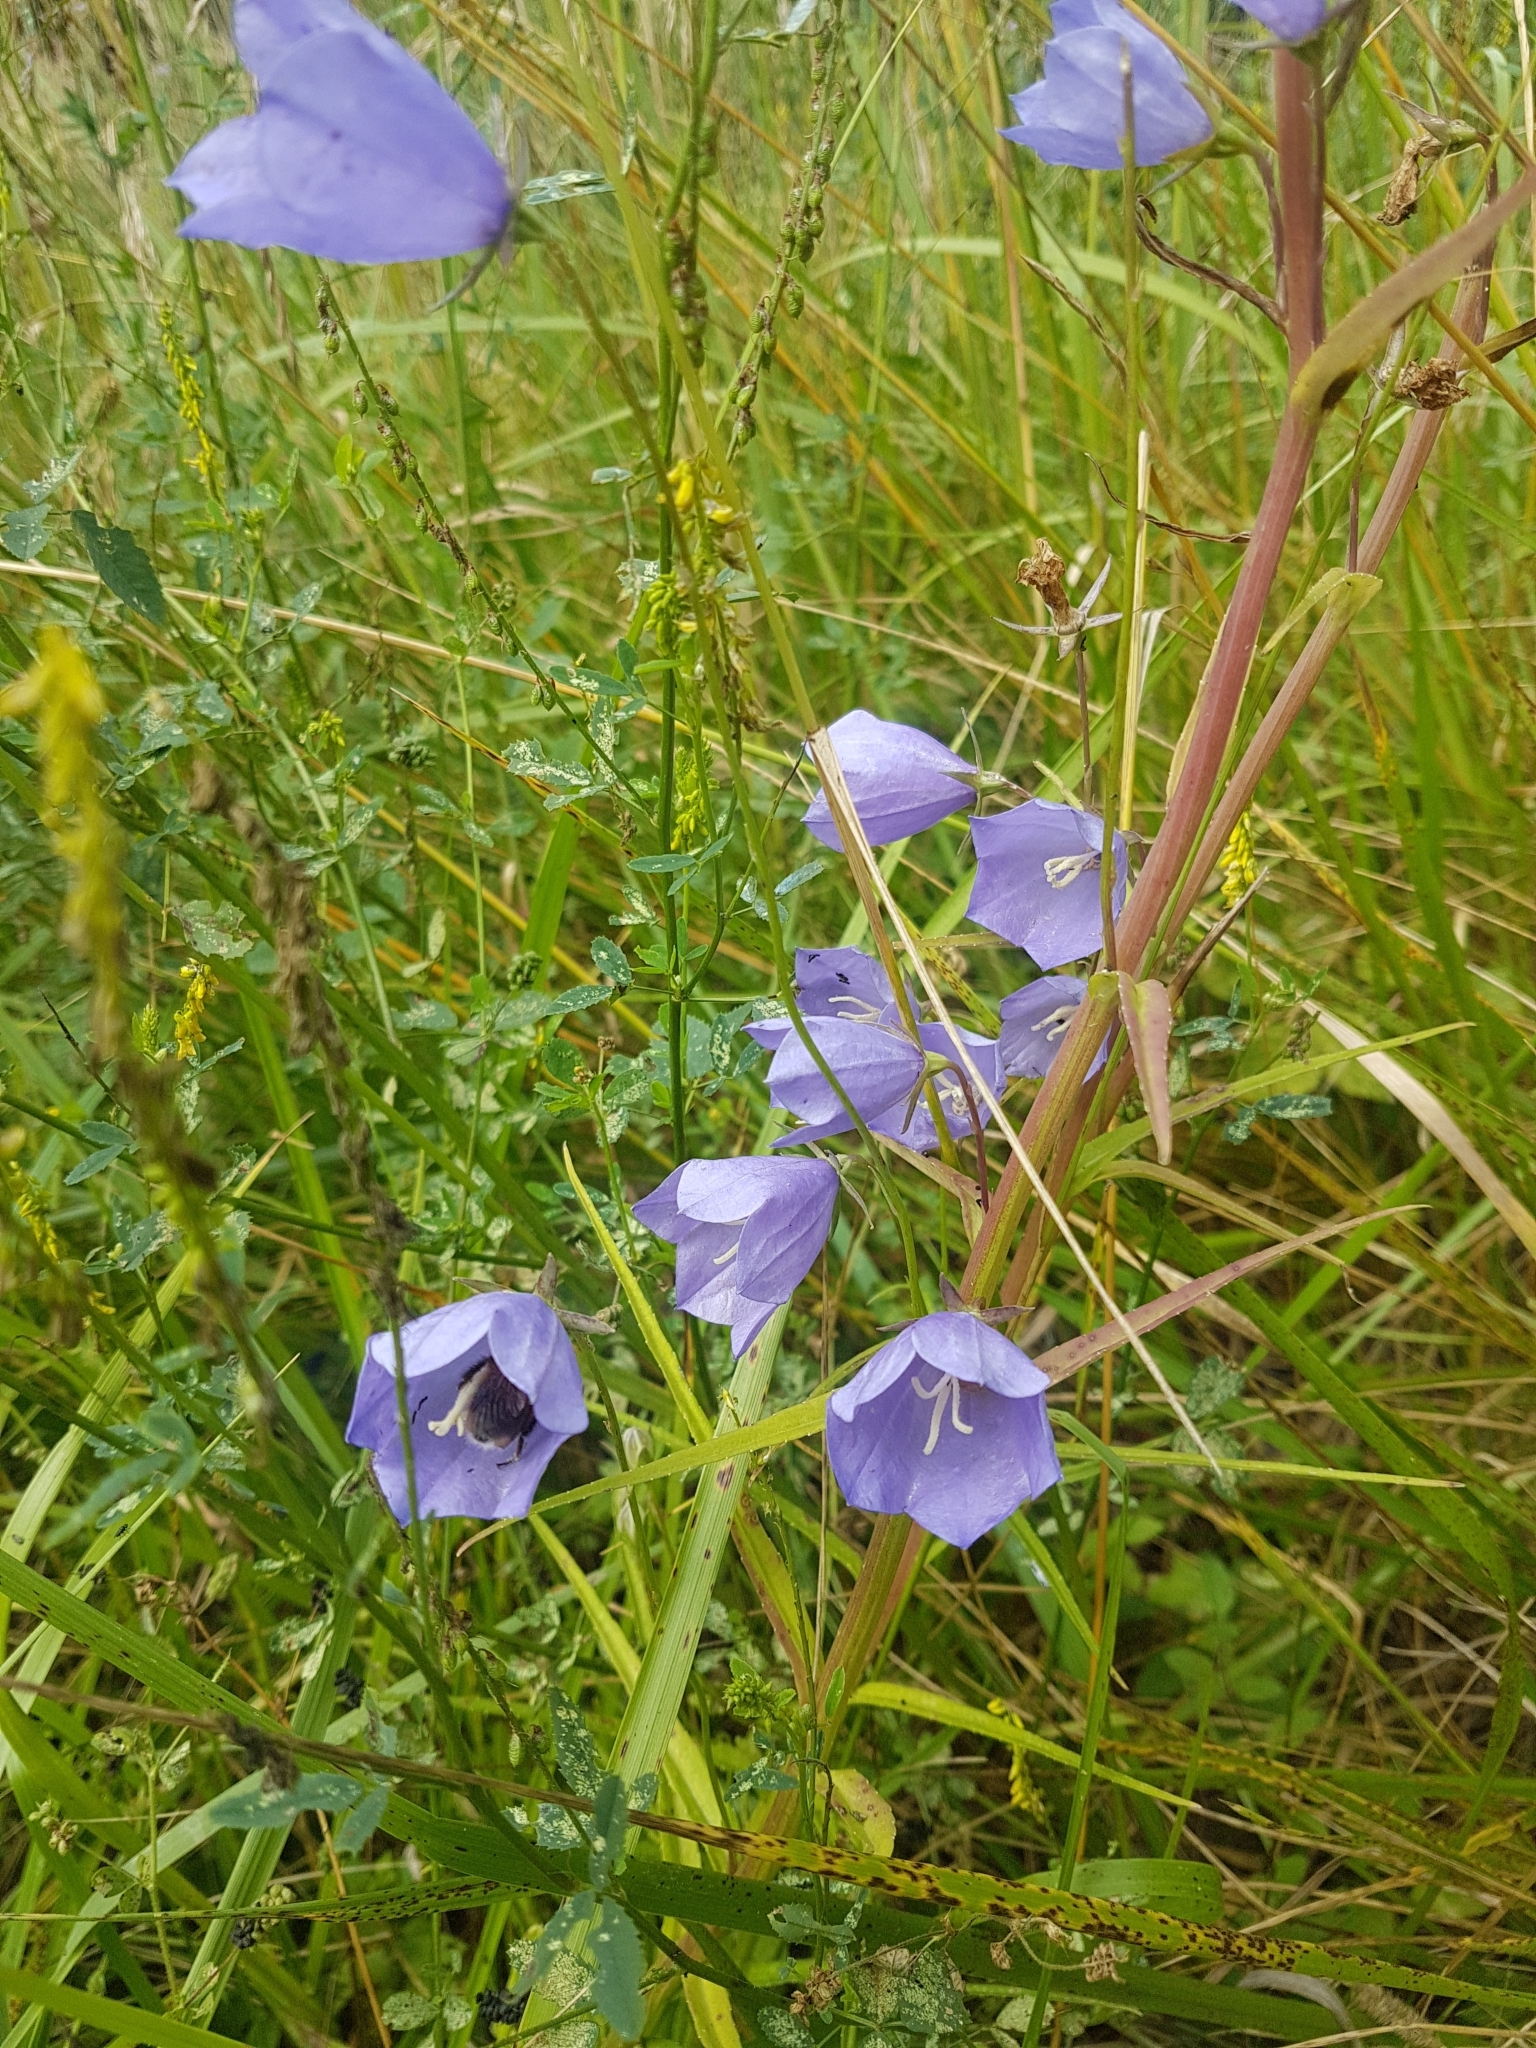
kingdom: Plantae
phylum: Tracheophyta
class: Magnoliopsida
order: Asterales
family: Campanulaceae
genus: Campanula
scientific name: Campanula persicifolia
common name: Peach-leaved bellflower
